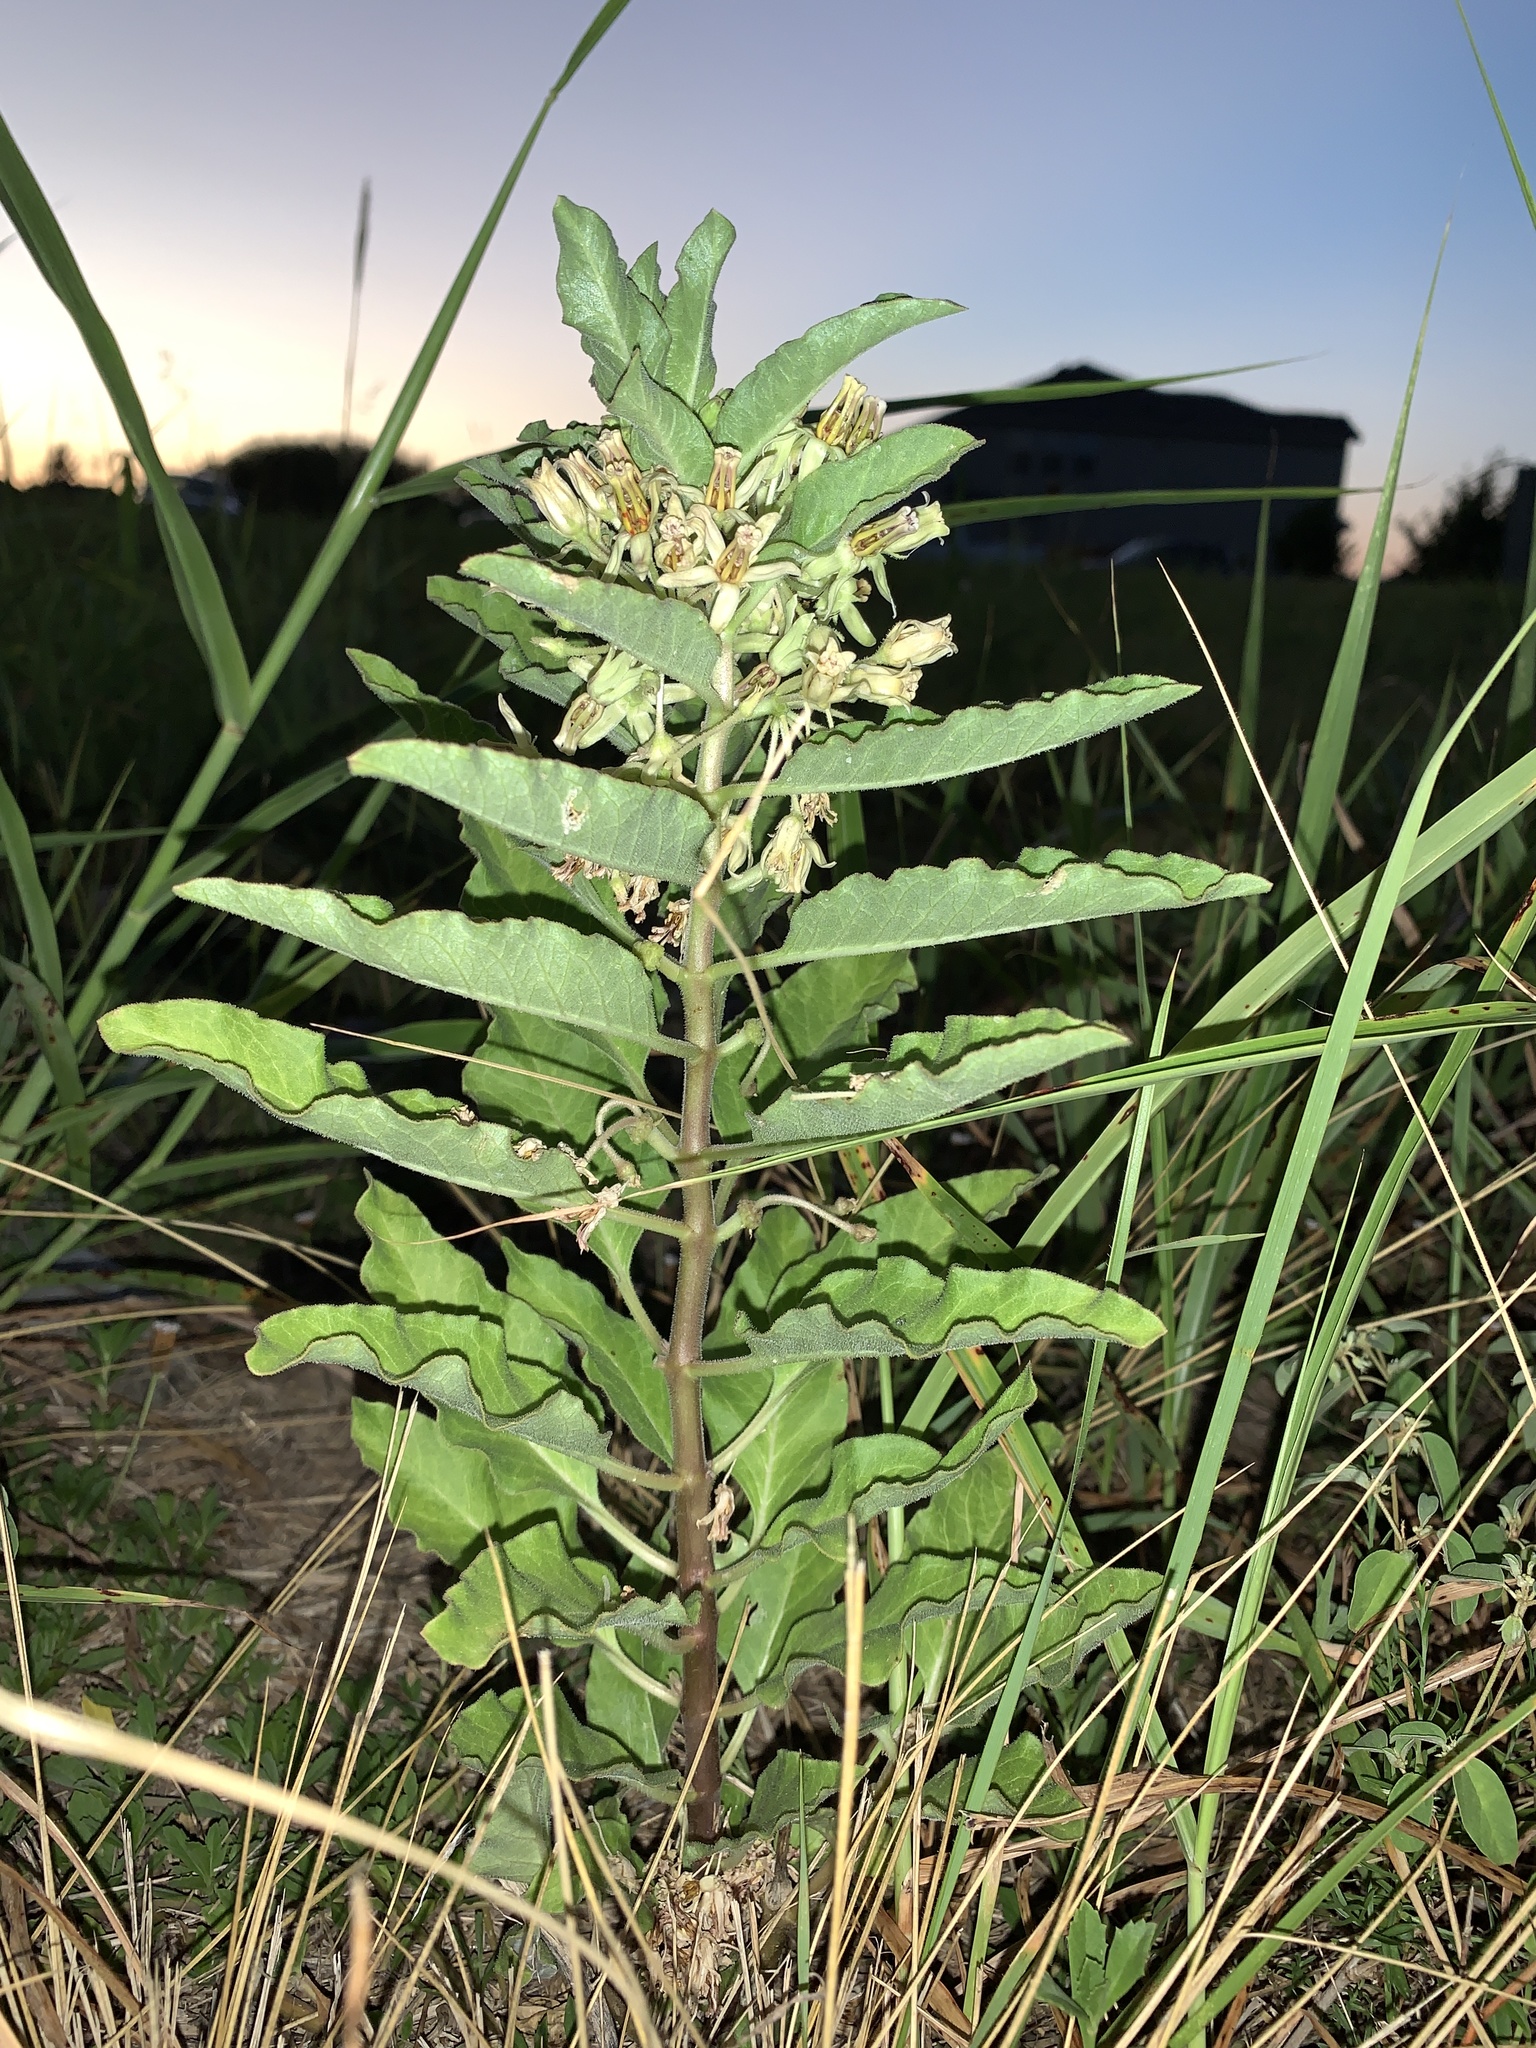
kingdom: Plantae
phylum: Tracheophyta
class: Magnoliopsida
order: Gentianales
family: Apocynaceae
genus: Asclepias
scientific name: Asclepias oenotheroides
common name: Zizotes milkweed
